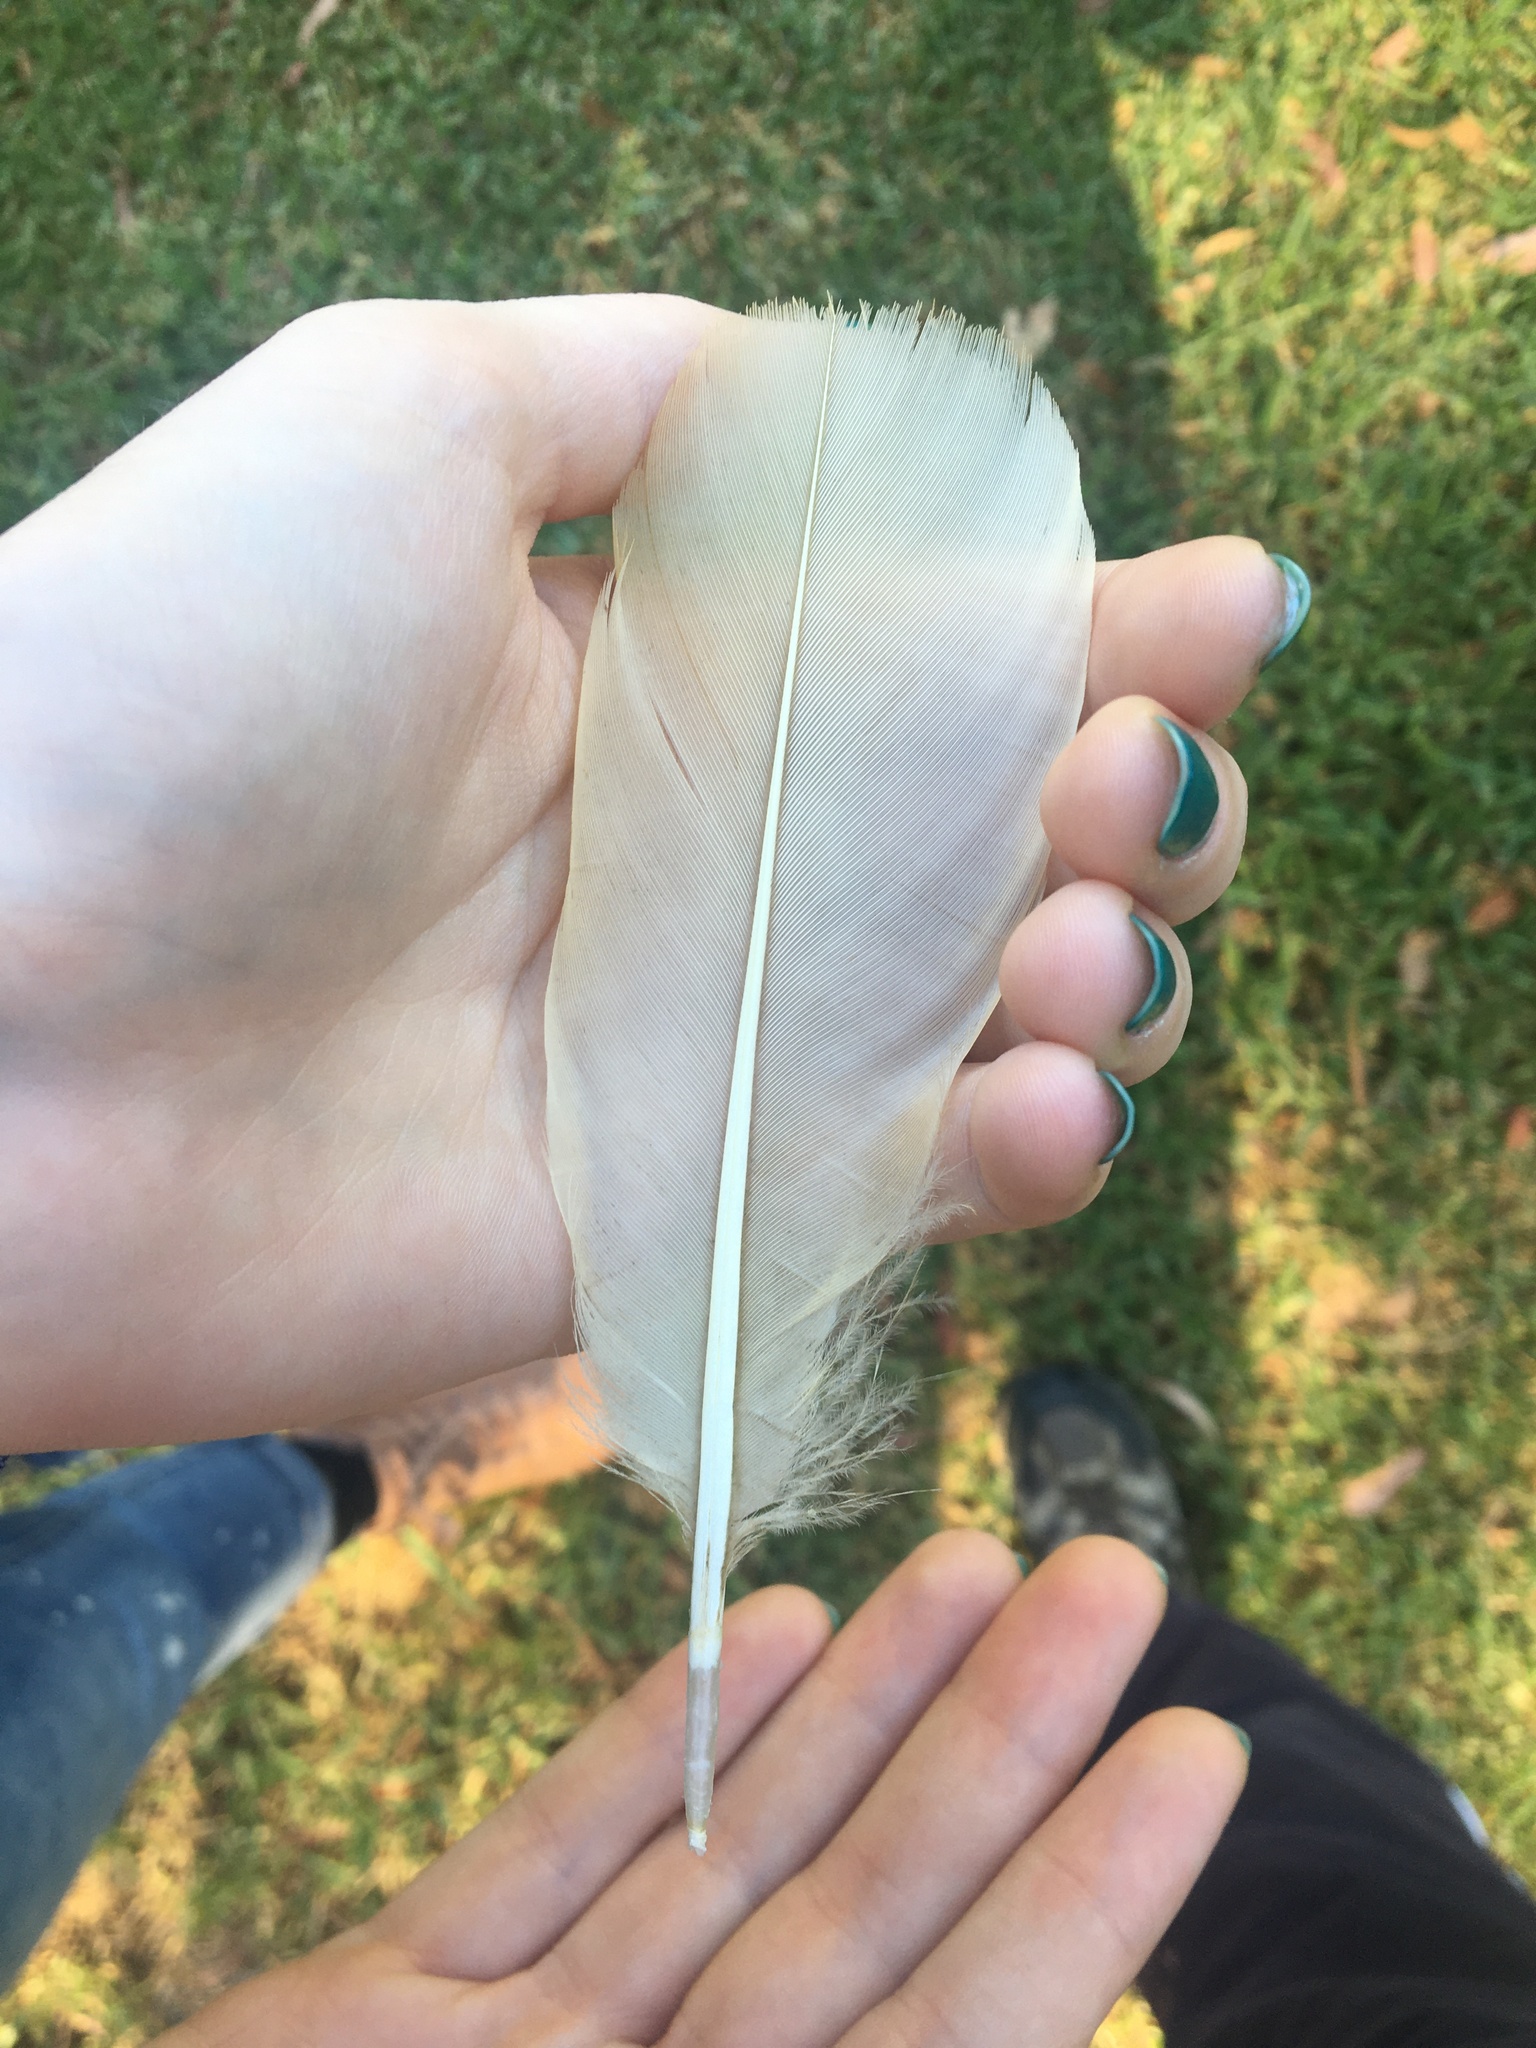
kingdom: Animalia
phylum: Chordata
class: Aves
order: Pelecaniformes
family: Threskiornithidae
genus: Threskiornis
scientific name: Threskiornis molucca
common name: Australian white ibis
